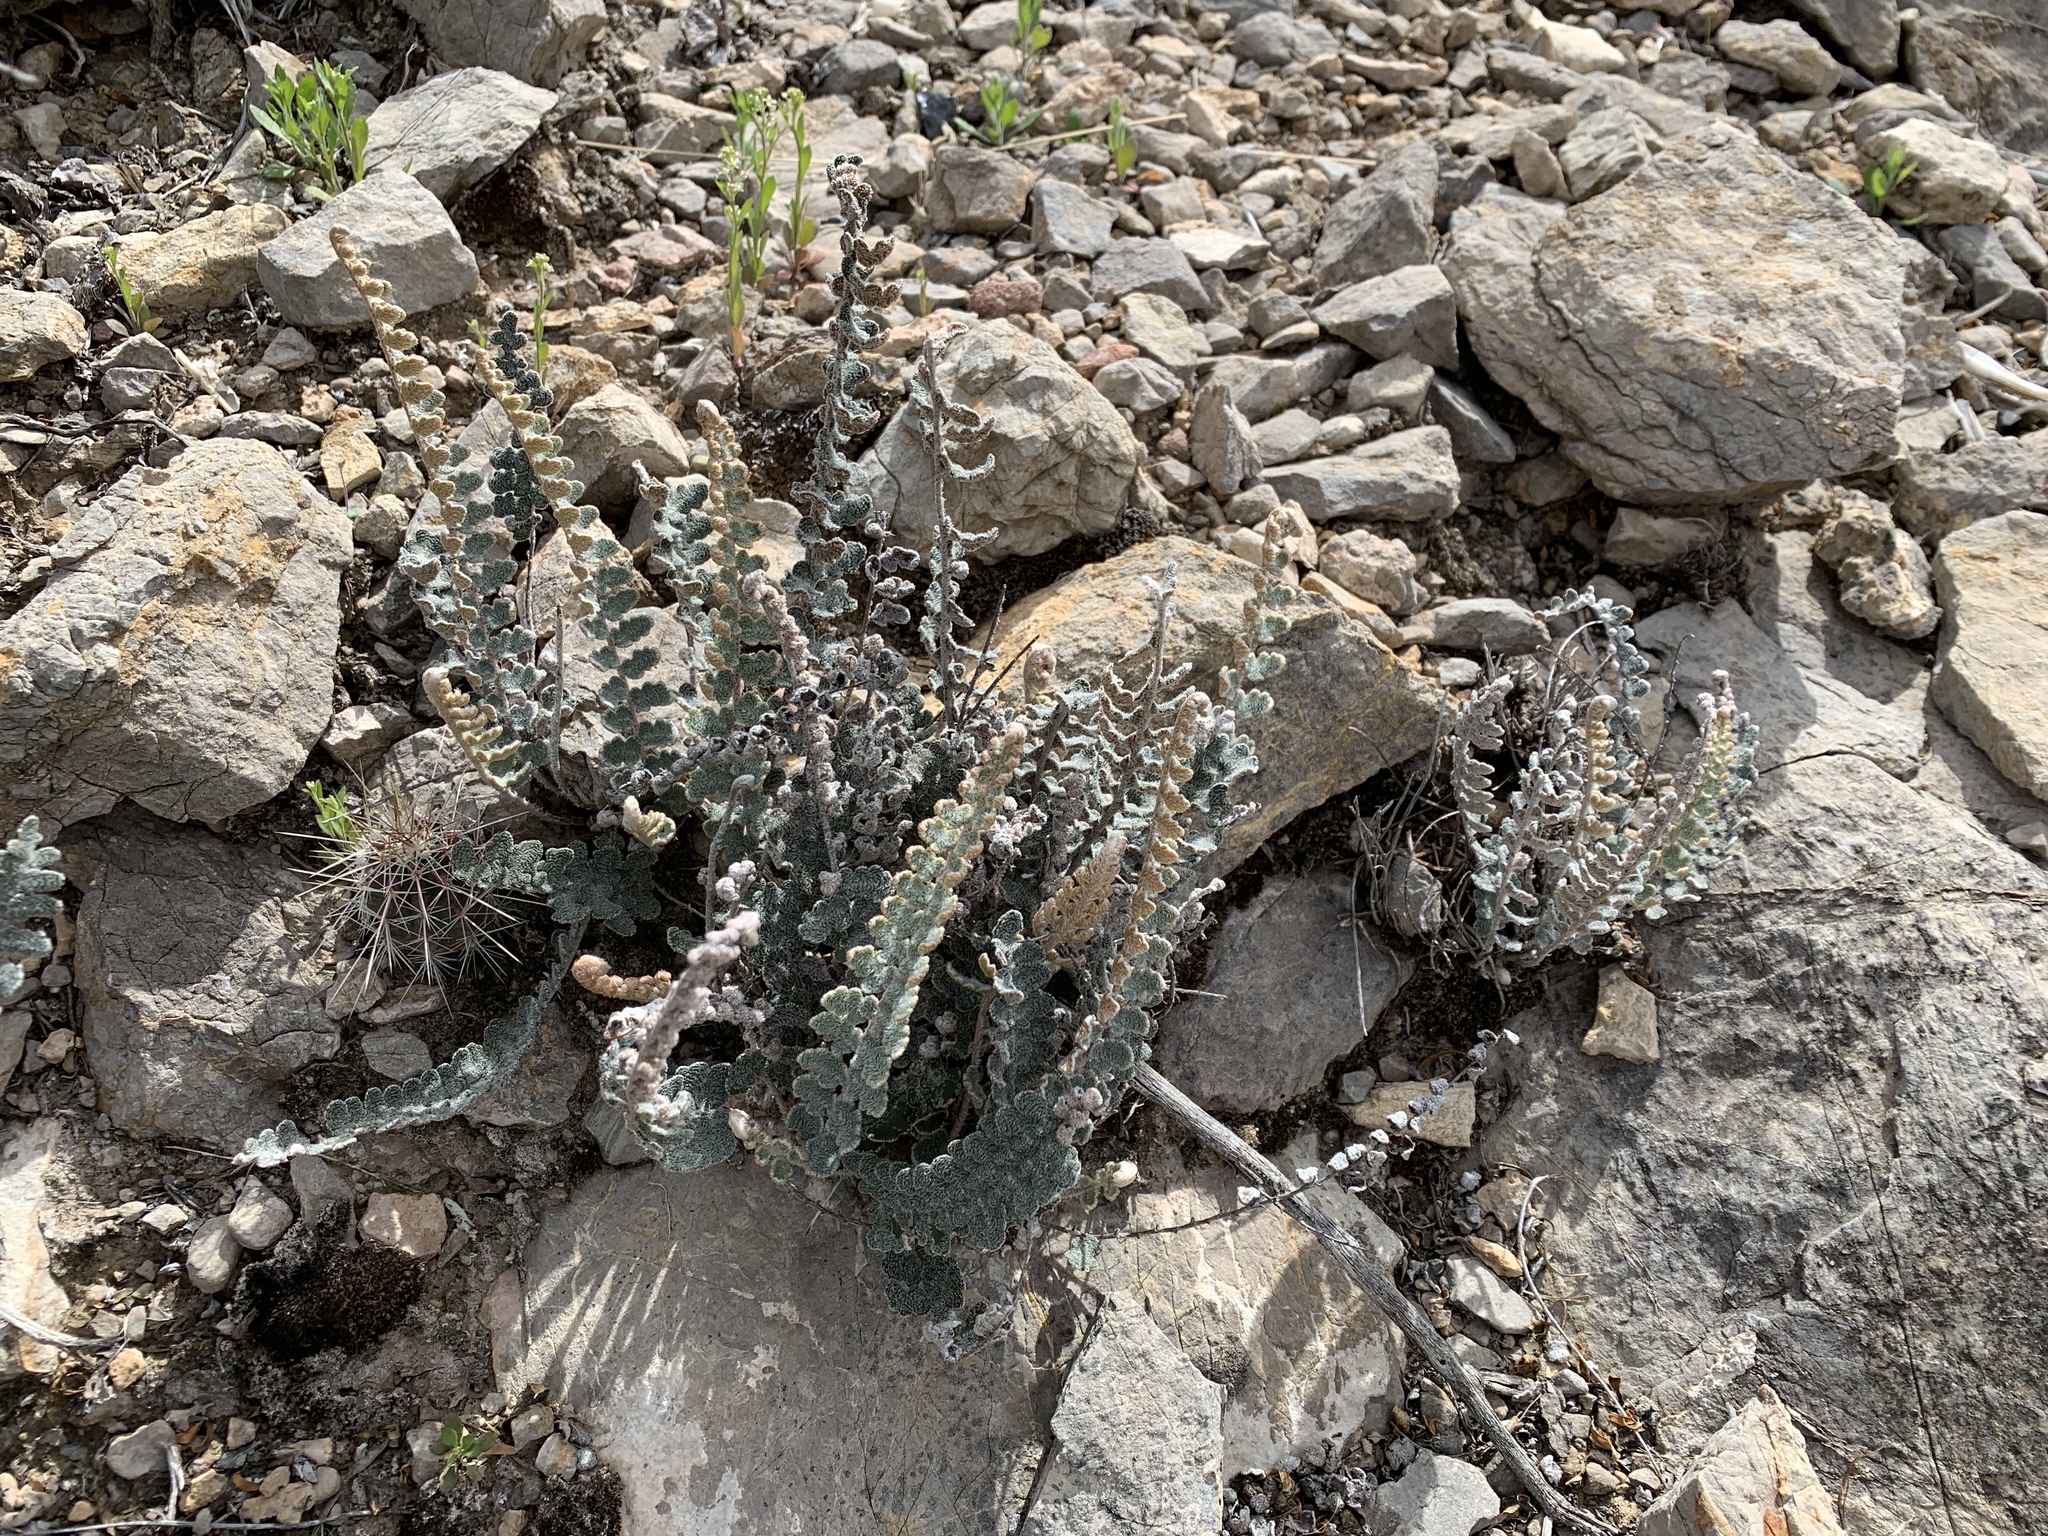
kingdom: Plantae
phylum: Tracheophyta
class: Polypodiopsida
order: Polypodiales
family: Pteridaceae
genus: Astrolepis
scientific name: Astrolepis integerrima
